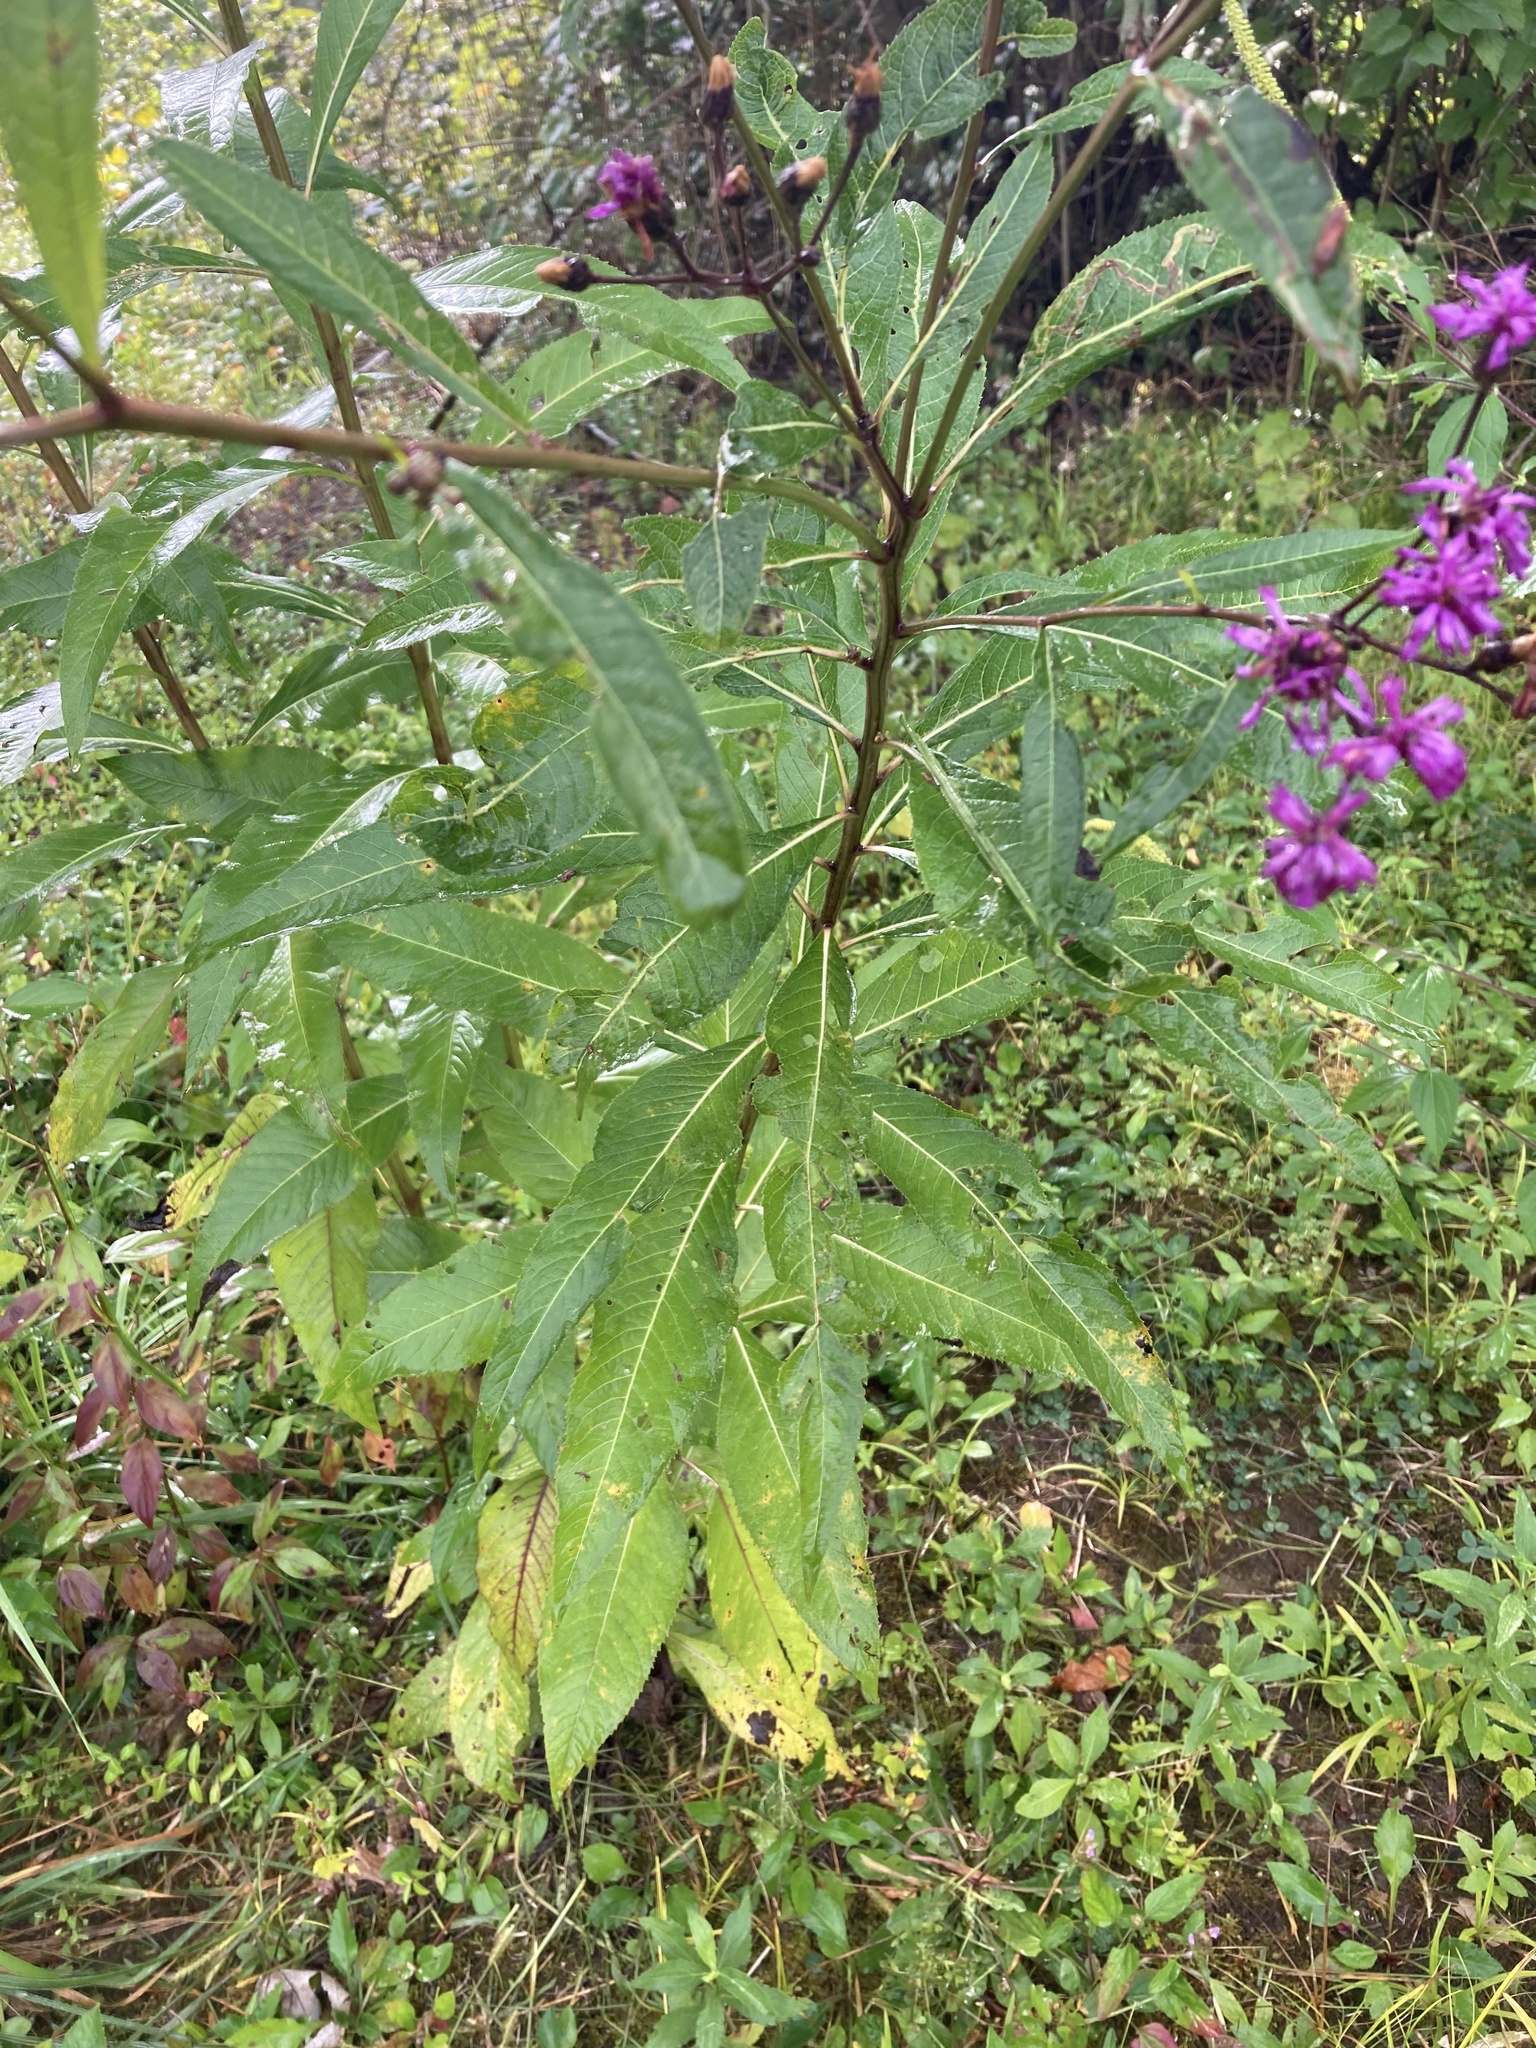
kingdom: Plantae
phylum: Tracheophyta
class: Magnoliopsida
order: Asterales
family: Asteraceae
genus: Vernonia
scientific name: Vernonia gigantea
